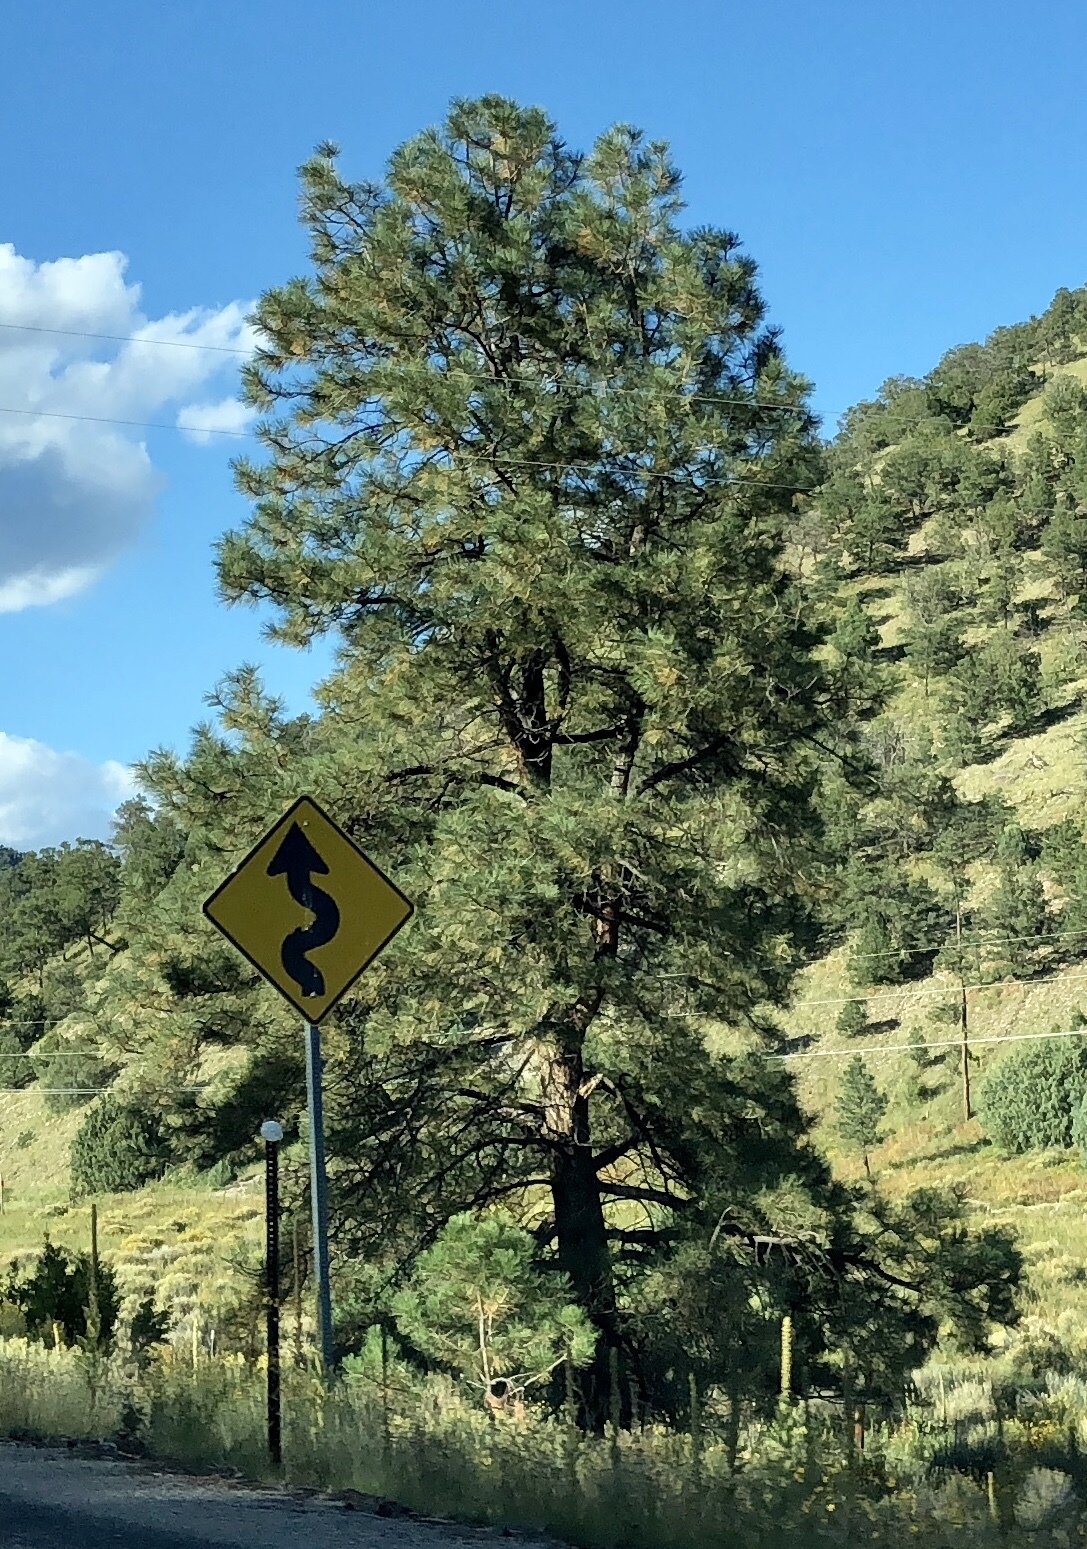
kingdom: Plantae
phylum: Tracheophyta
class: Pinopsida
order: Pinales
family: Pinaceae
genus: Pinus
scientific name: Pinus ponderosa
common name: Western yellow-pine
